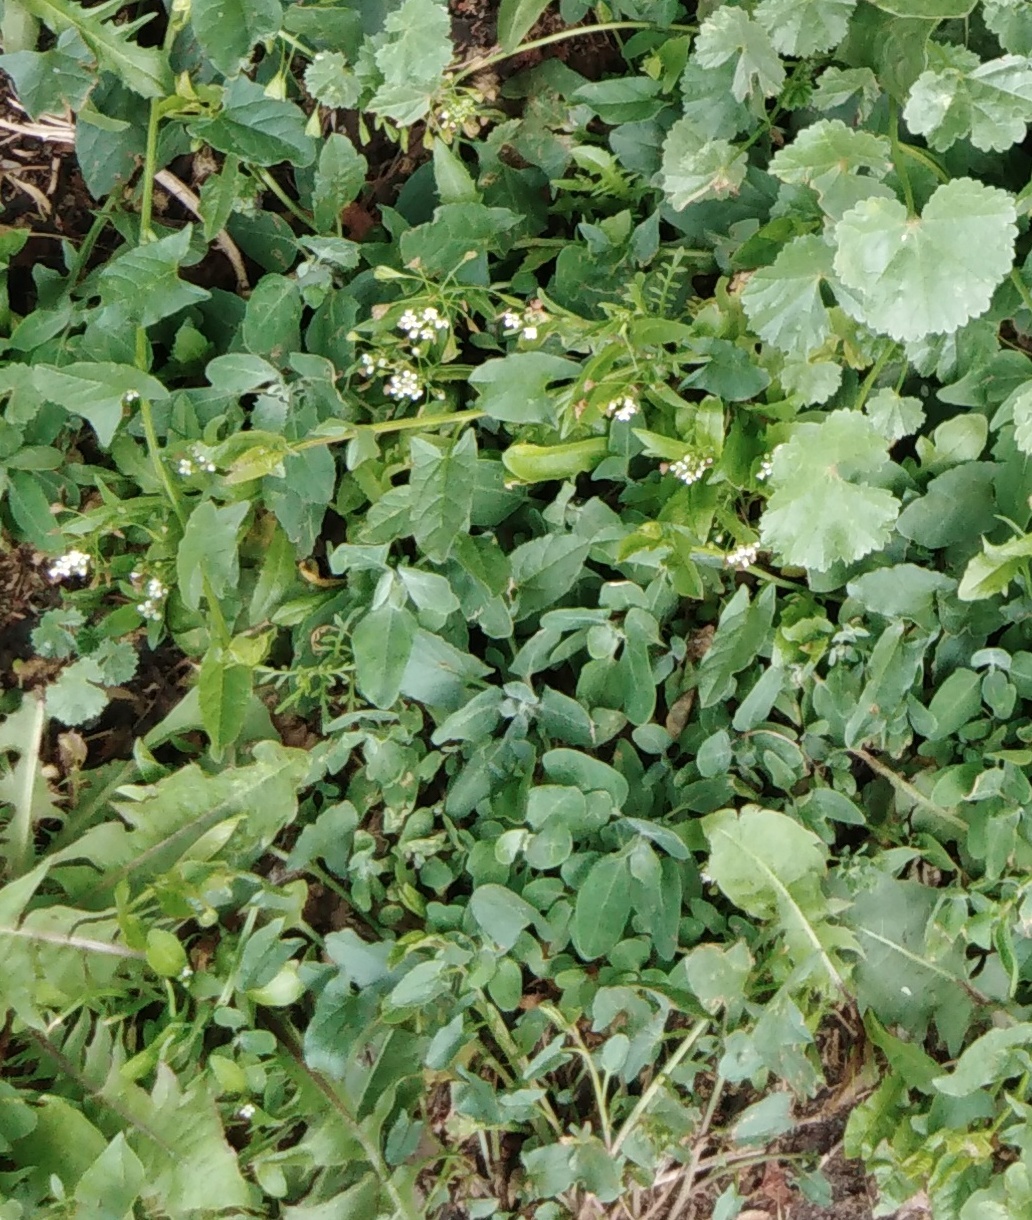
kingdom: Plantae
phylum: Tracheophyta
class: Magnoliopsida
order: Solanales
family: Convolvulaceae
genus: Convolvulus
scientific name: Convolvulus arvensis
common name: Field bindweed
